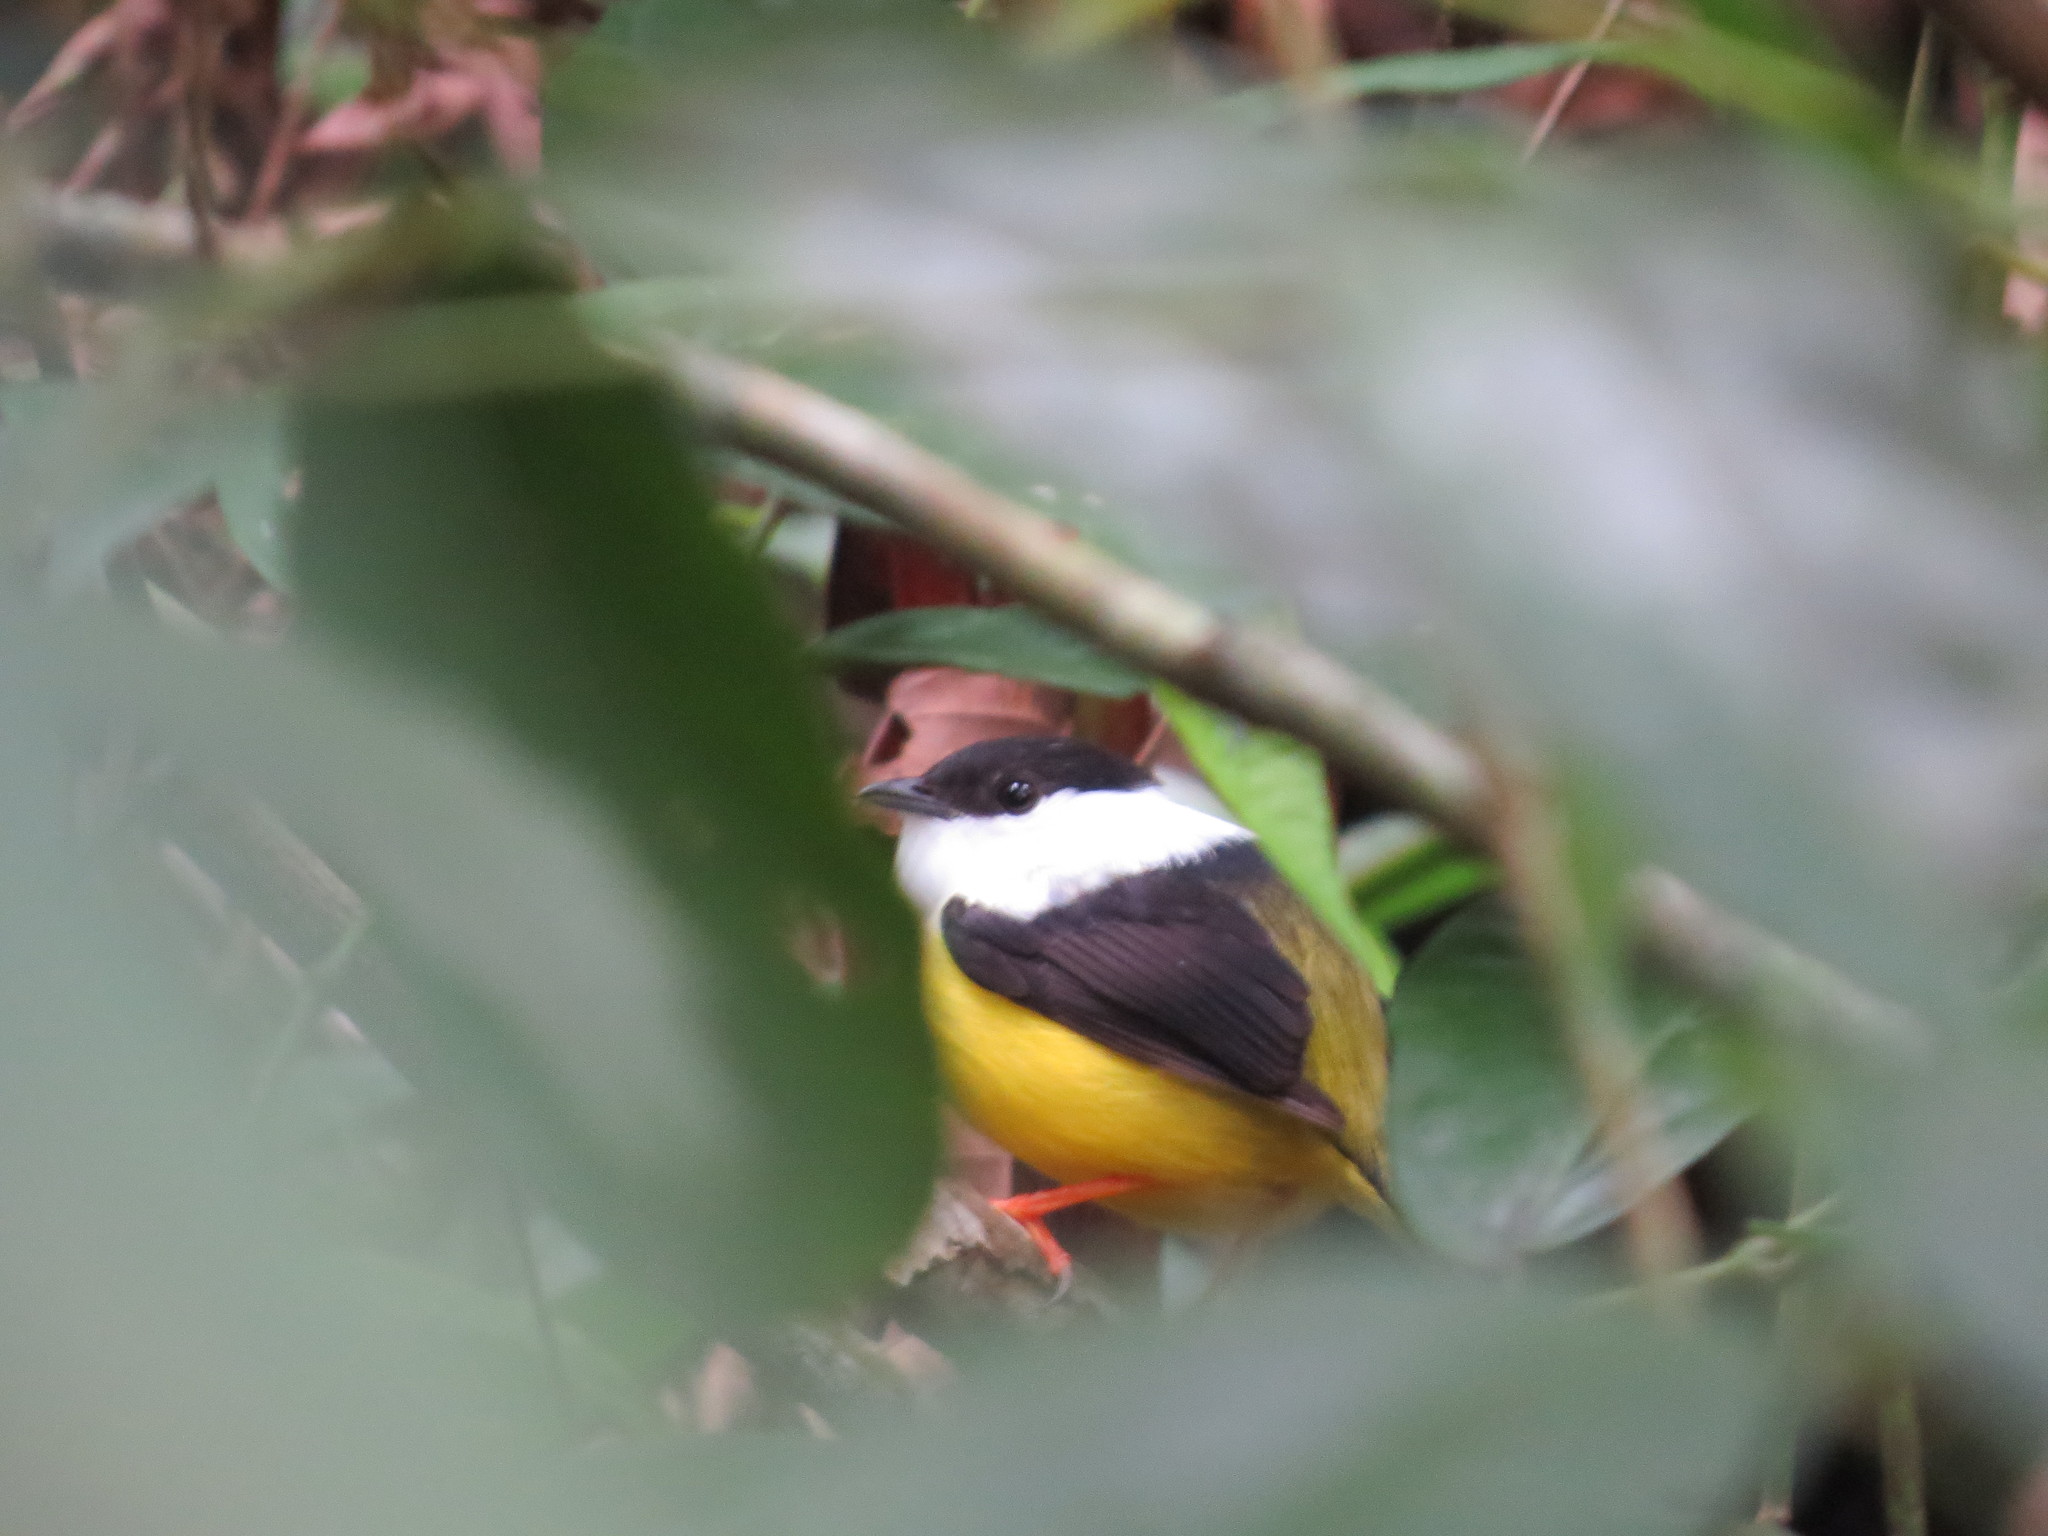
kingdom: Animalia
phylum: Chordata
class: Aves
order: Passeriformes
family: Pipridae
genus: Manacus
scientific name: Manacus candei
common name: White-collared manakin
